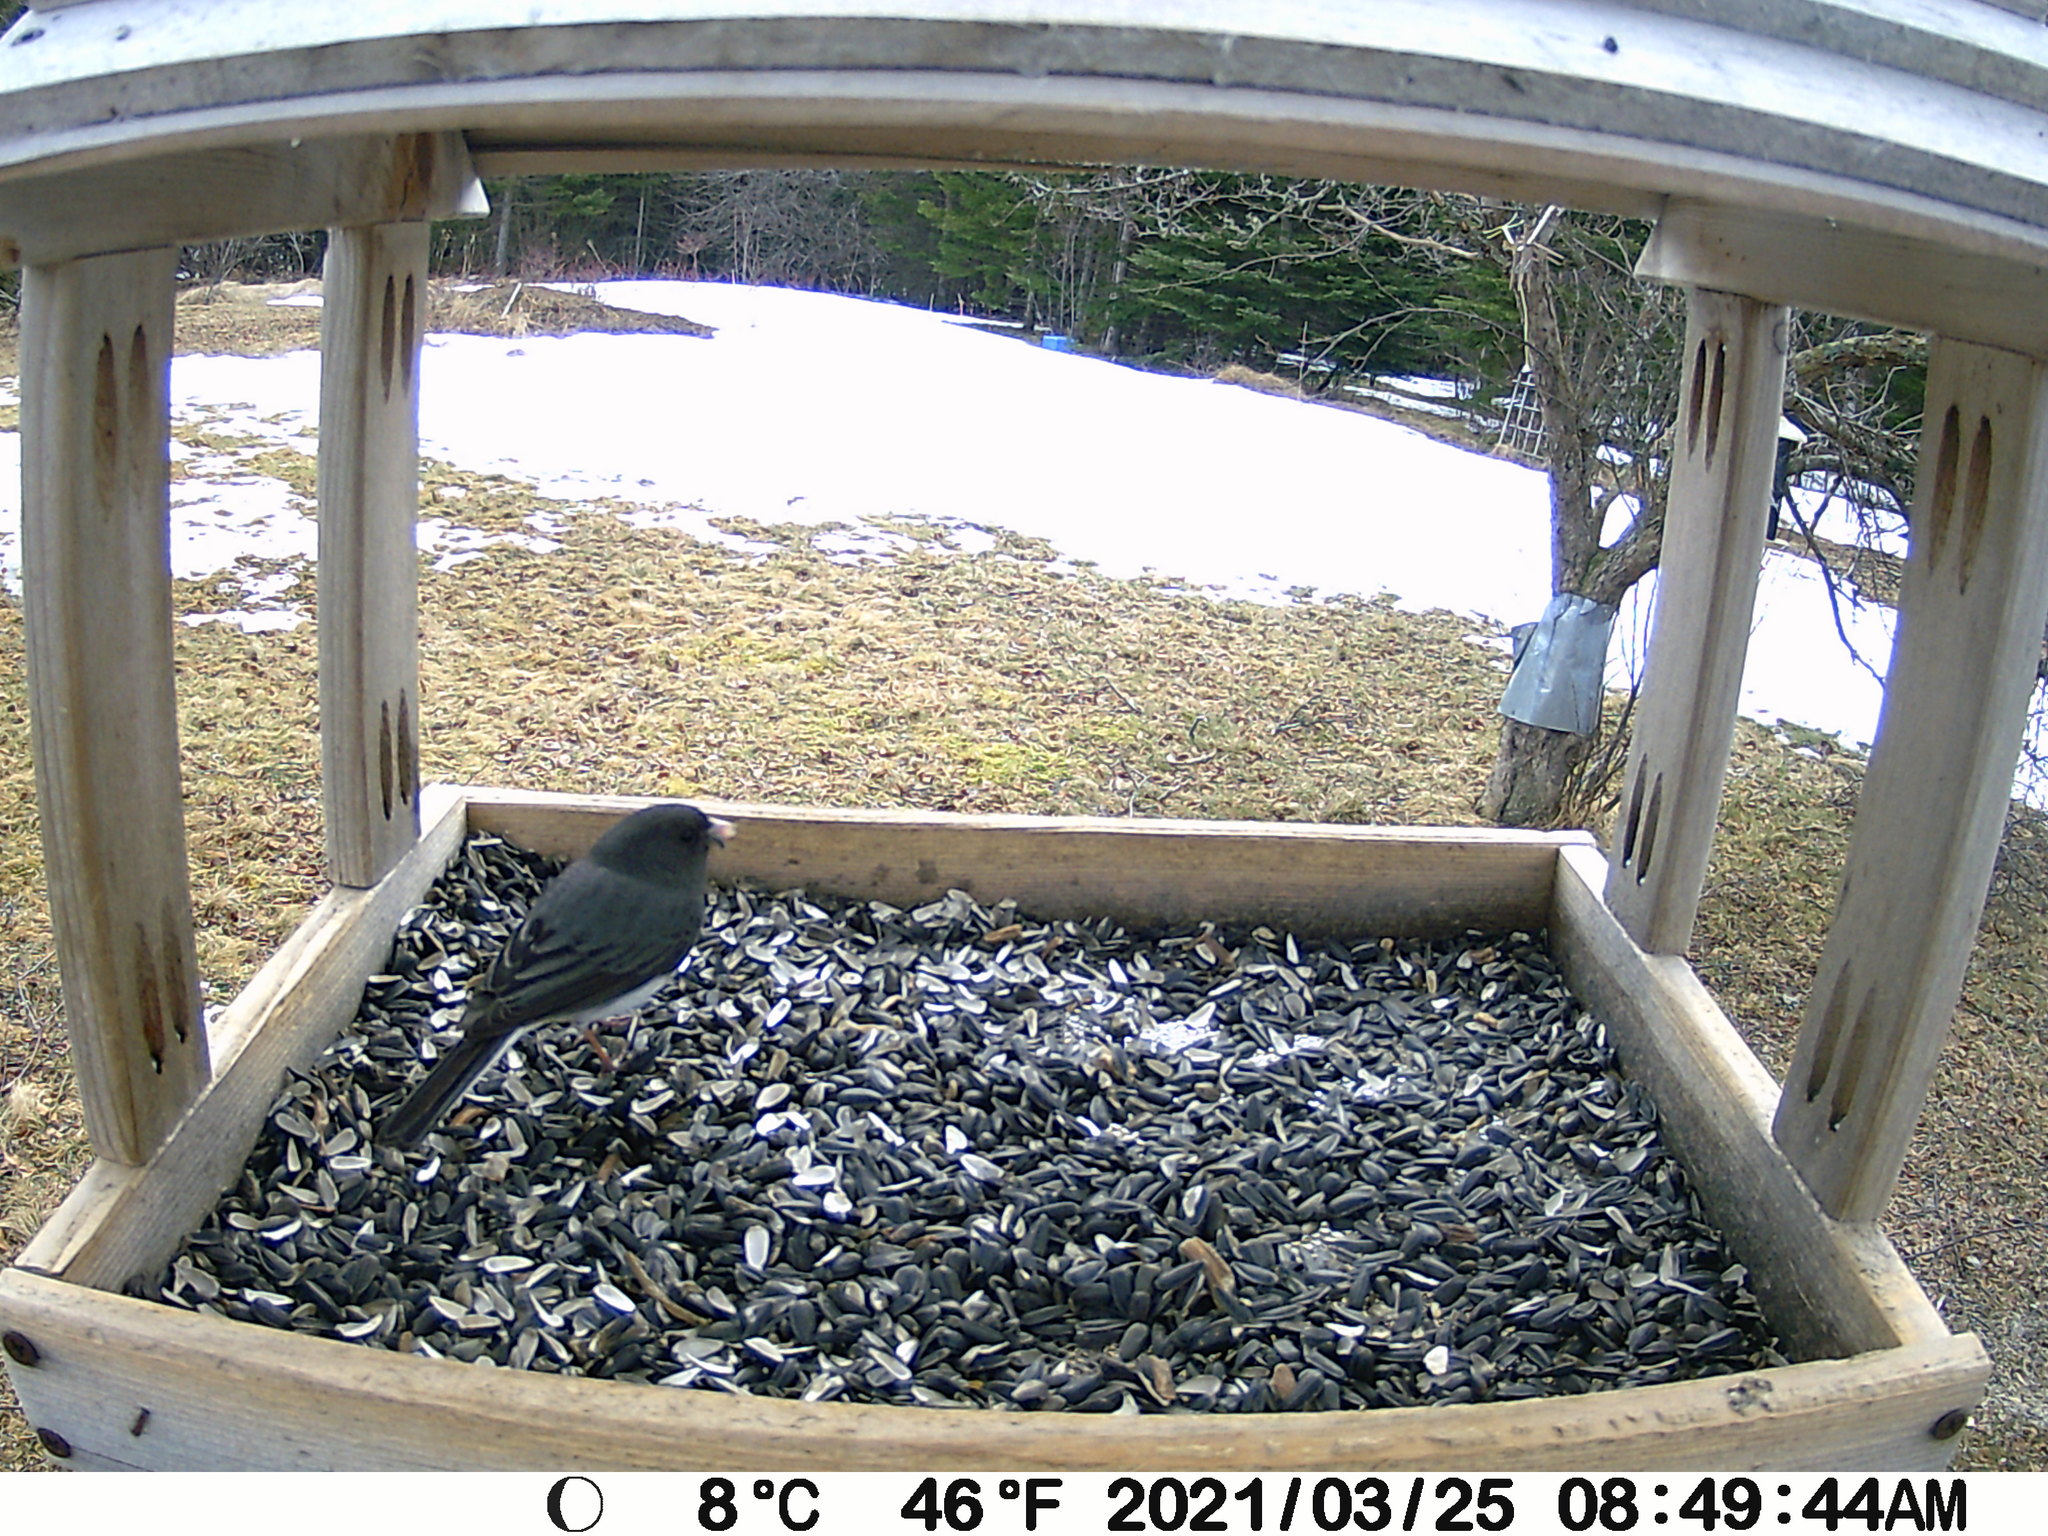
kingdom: Animalia
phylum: Chordata
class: Aves
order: Passeriformes
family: Passerellidae
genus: Junco
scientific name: Junco hyemalis
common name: Dark-eyed junco
